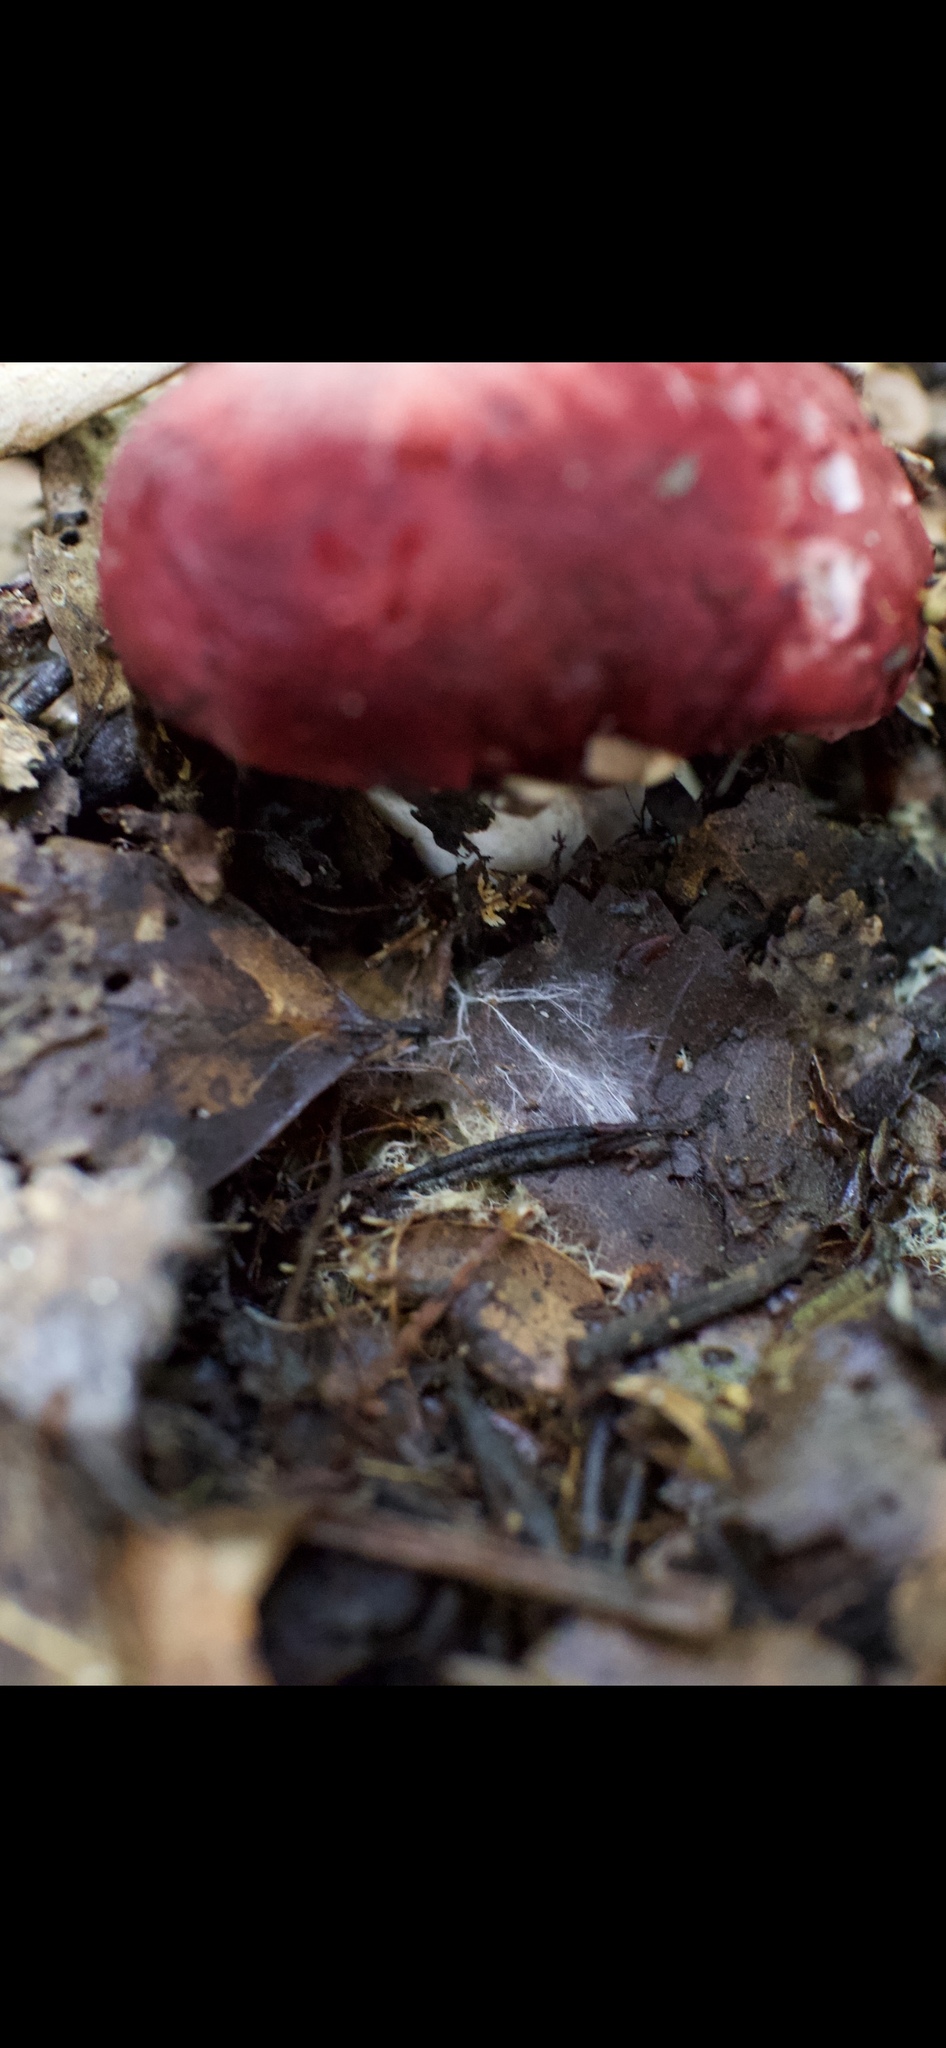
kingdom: Fungi
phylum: Basidiomycota
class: Agaricomycetes
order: Russulales
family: Russulaceae
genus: Russula
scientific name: Russula kermesina
